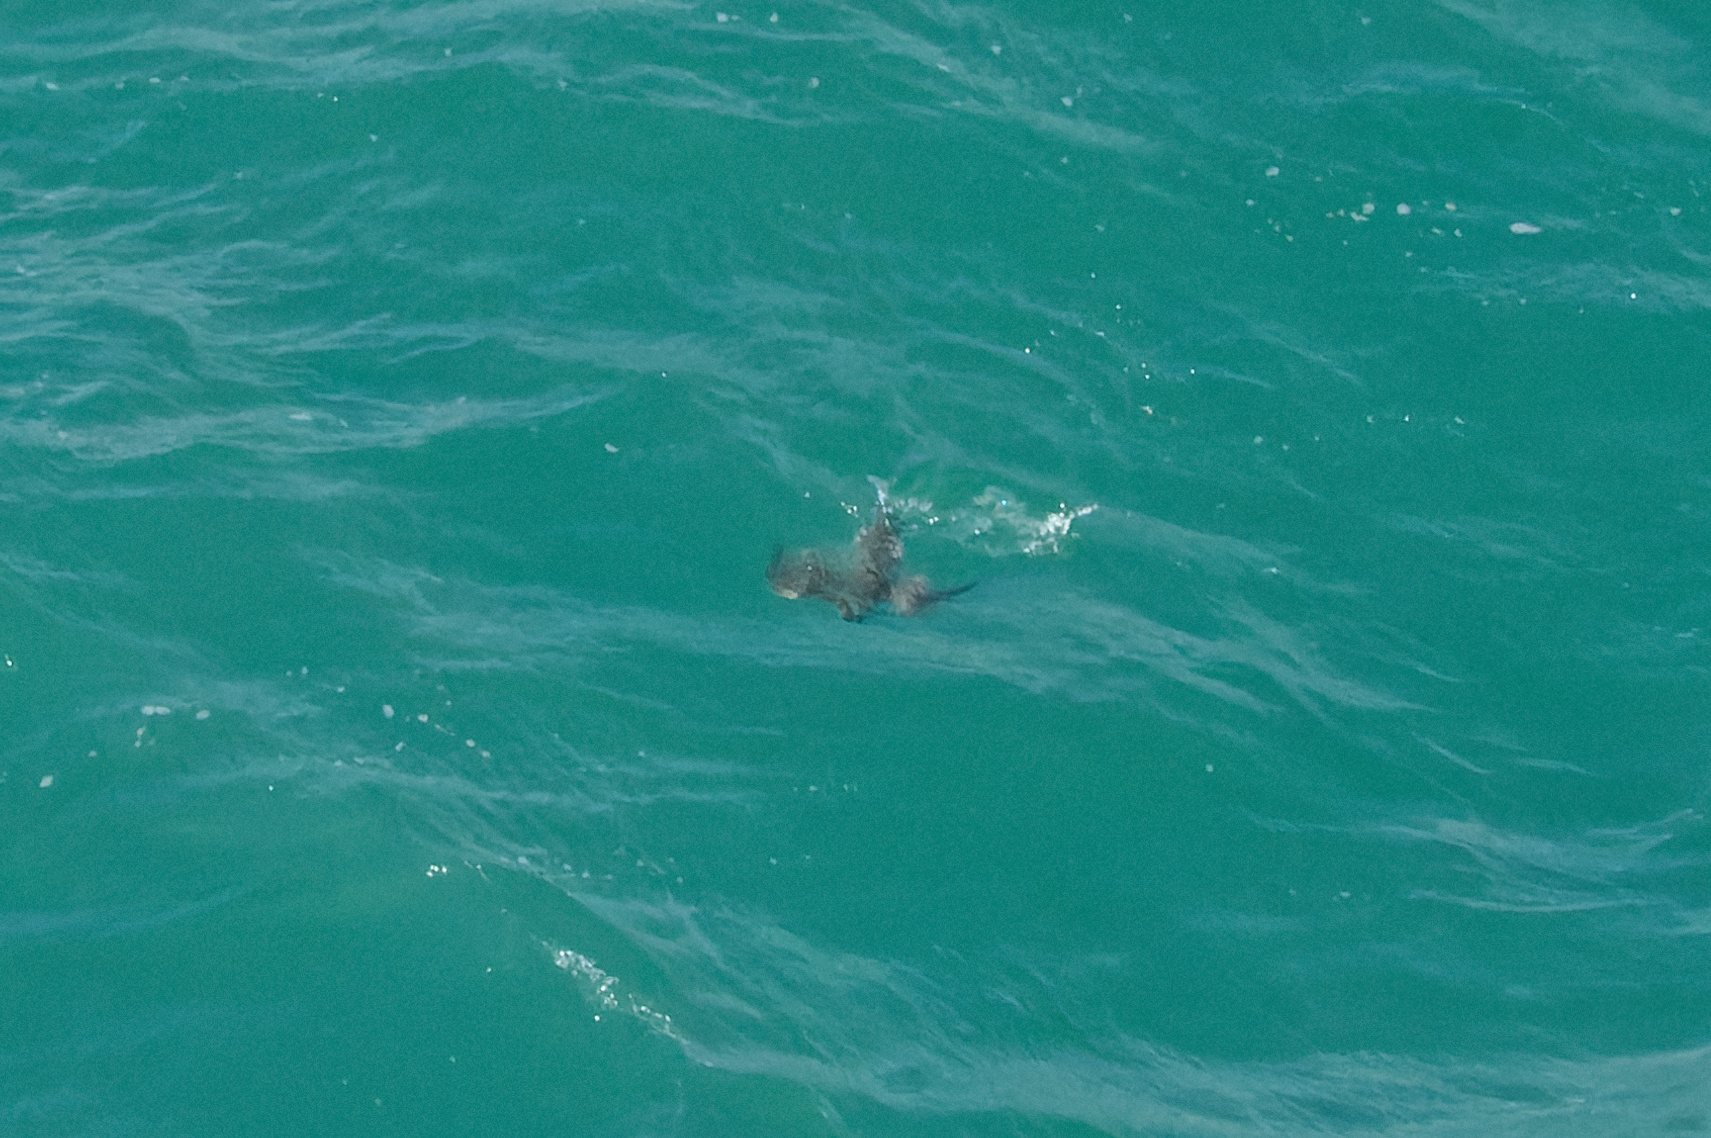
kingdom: Animalia
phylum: Chordata
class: Aves
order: Charadriiformes
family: Alcidae
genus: Uria
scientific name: Uria aalge
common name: Common murre
